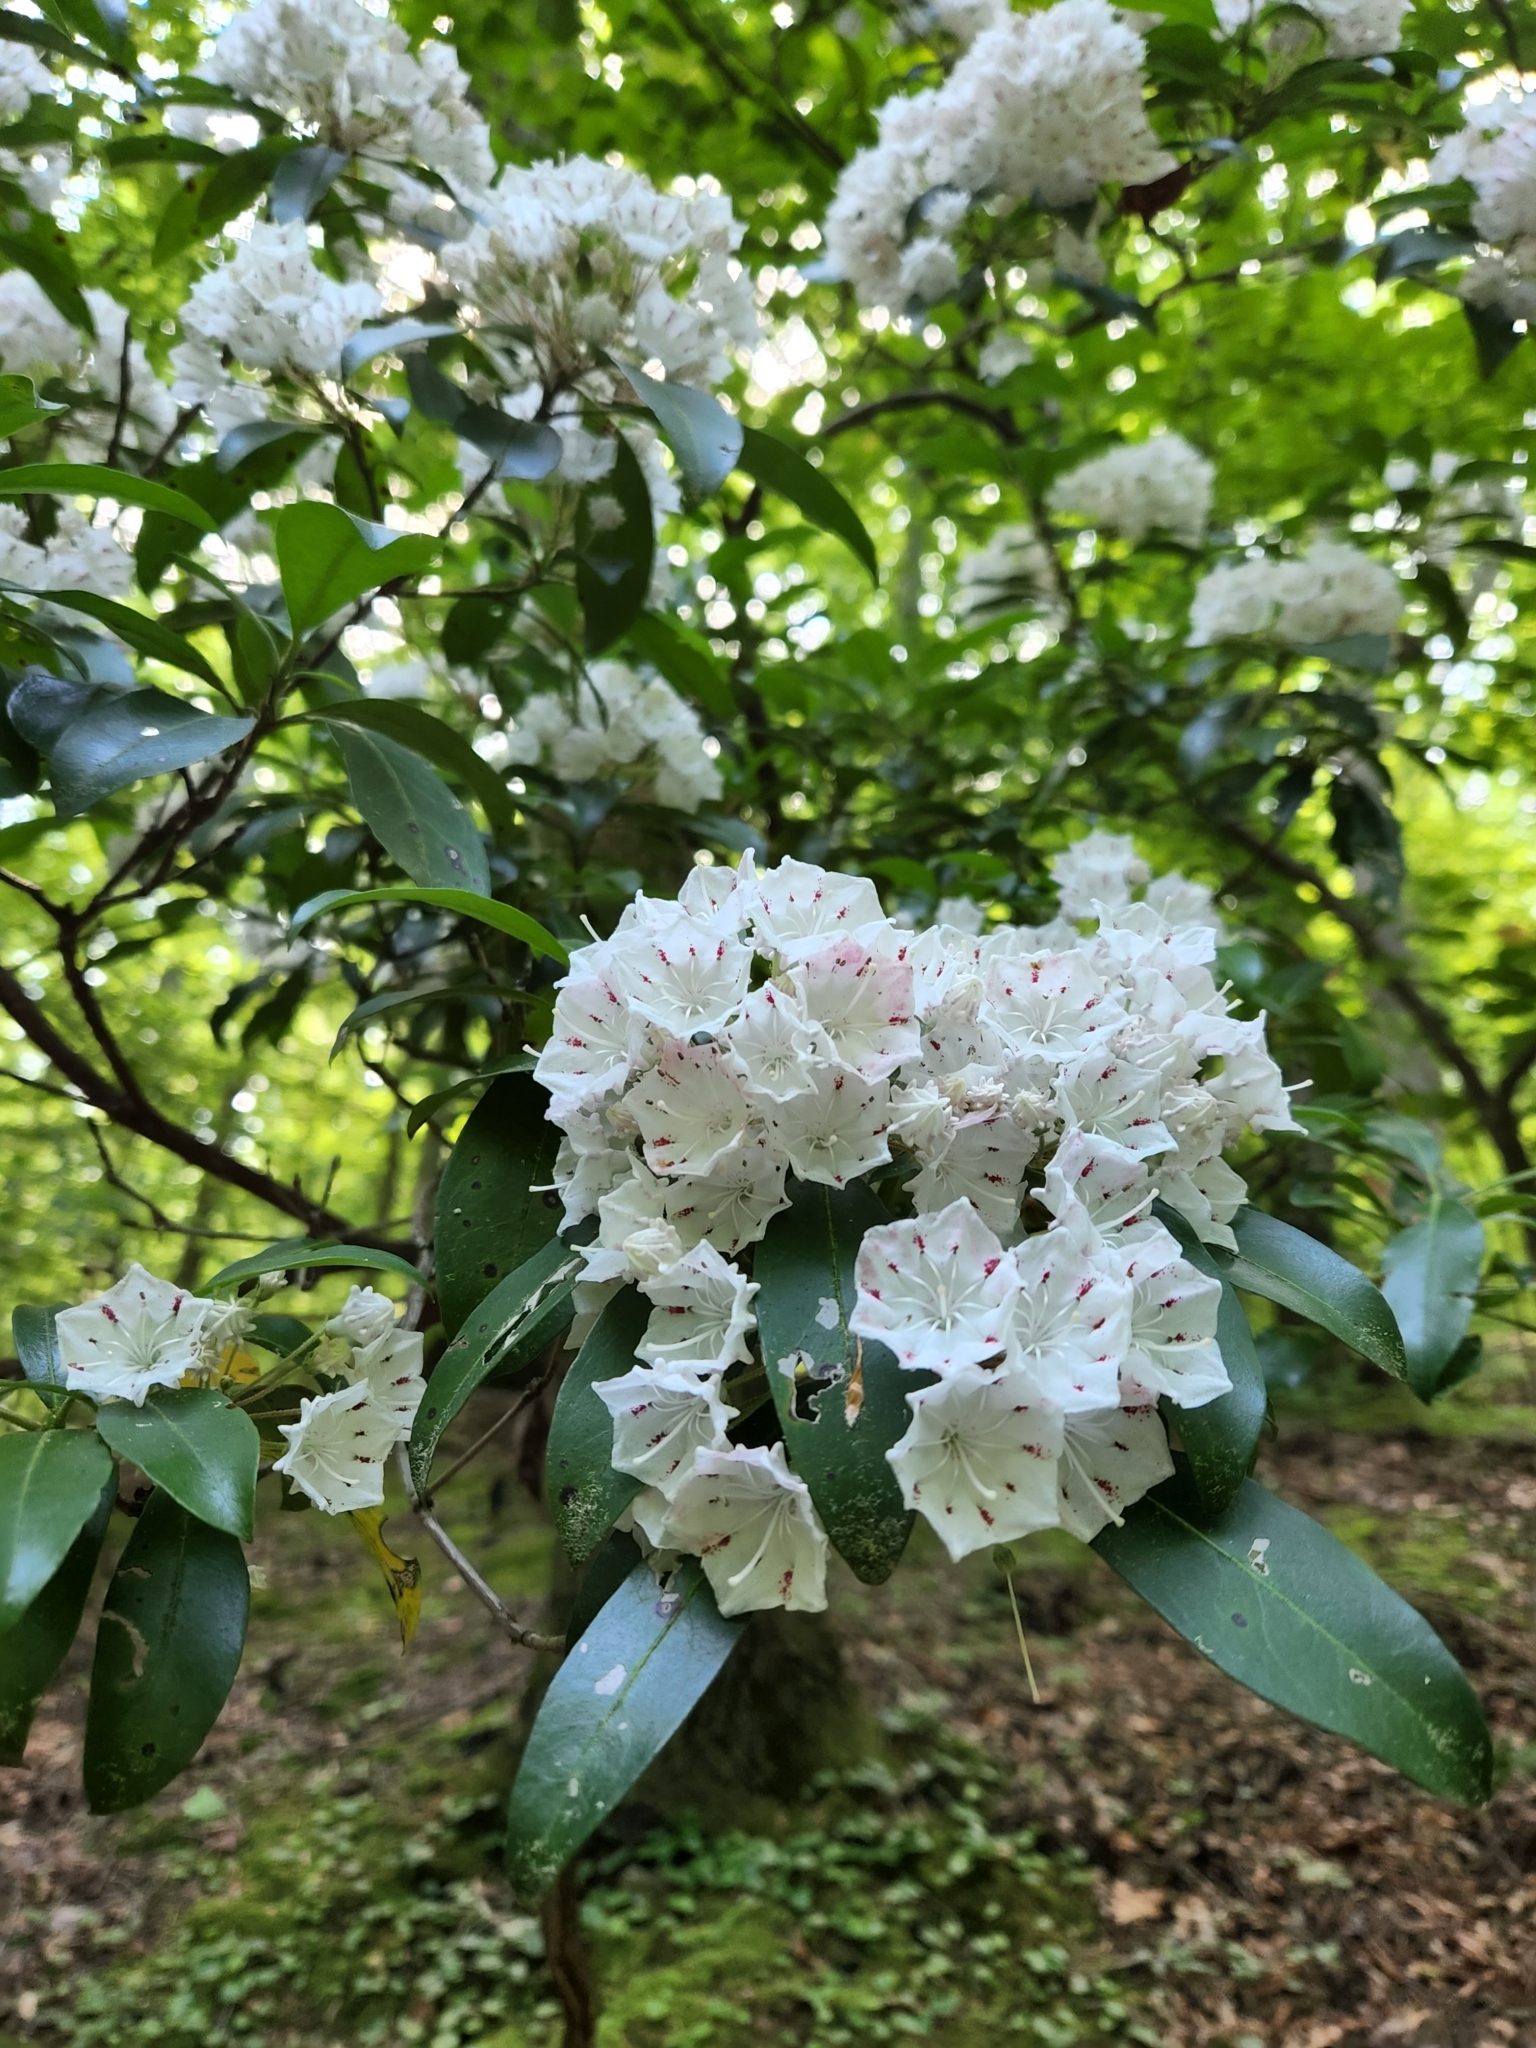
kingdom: Plantae
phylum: Tracheophyta
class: Magnoliopsida
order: Ericales
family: Ericaceae
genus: Kalmia
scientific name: Kalmia latifolia
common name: Mountain-laurel
